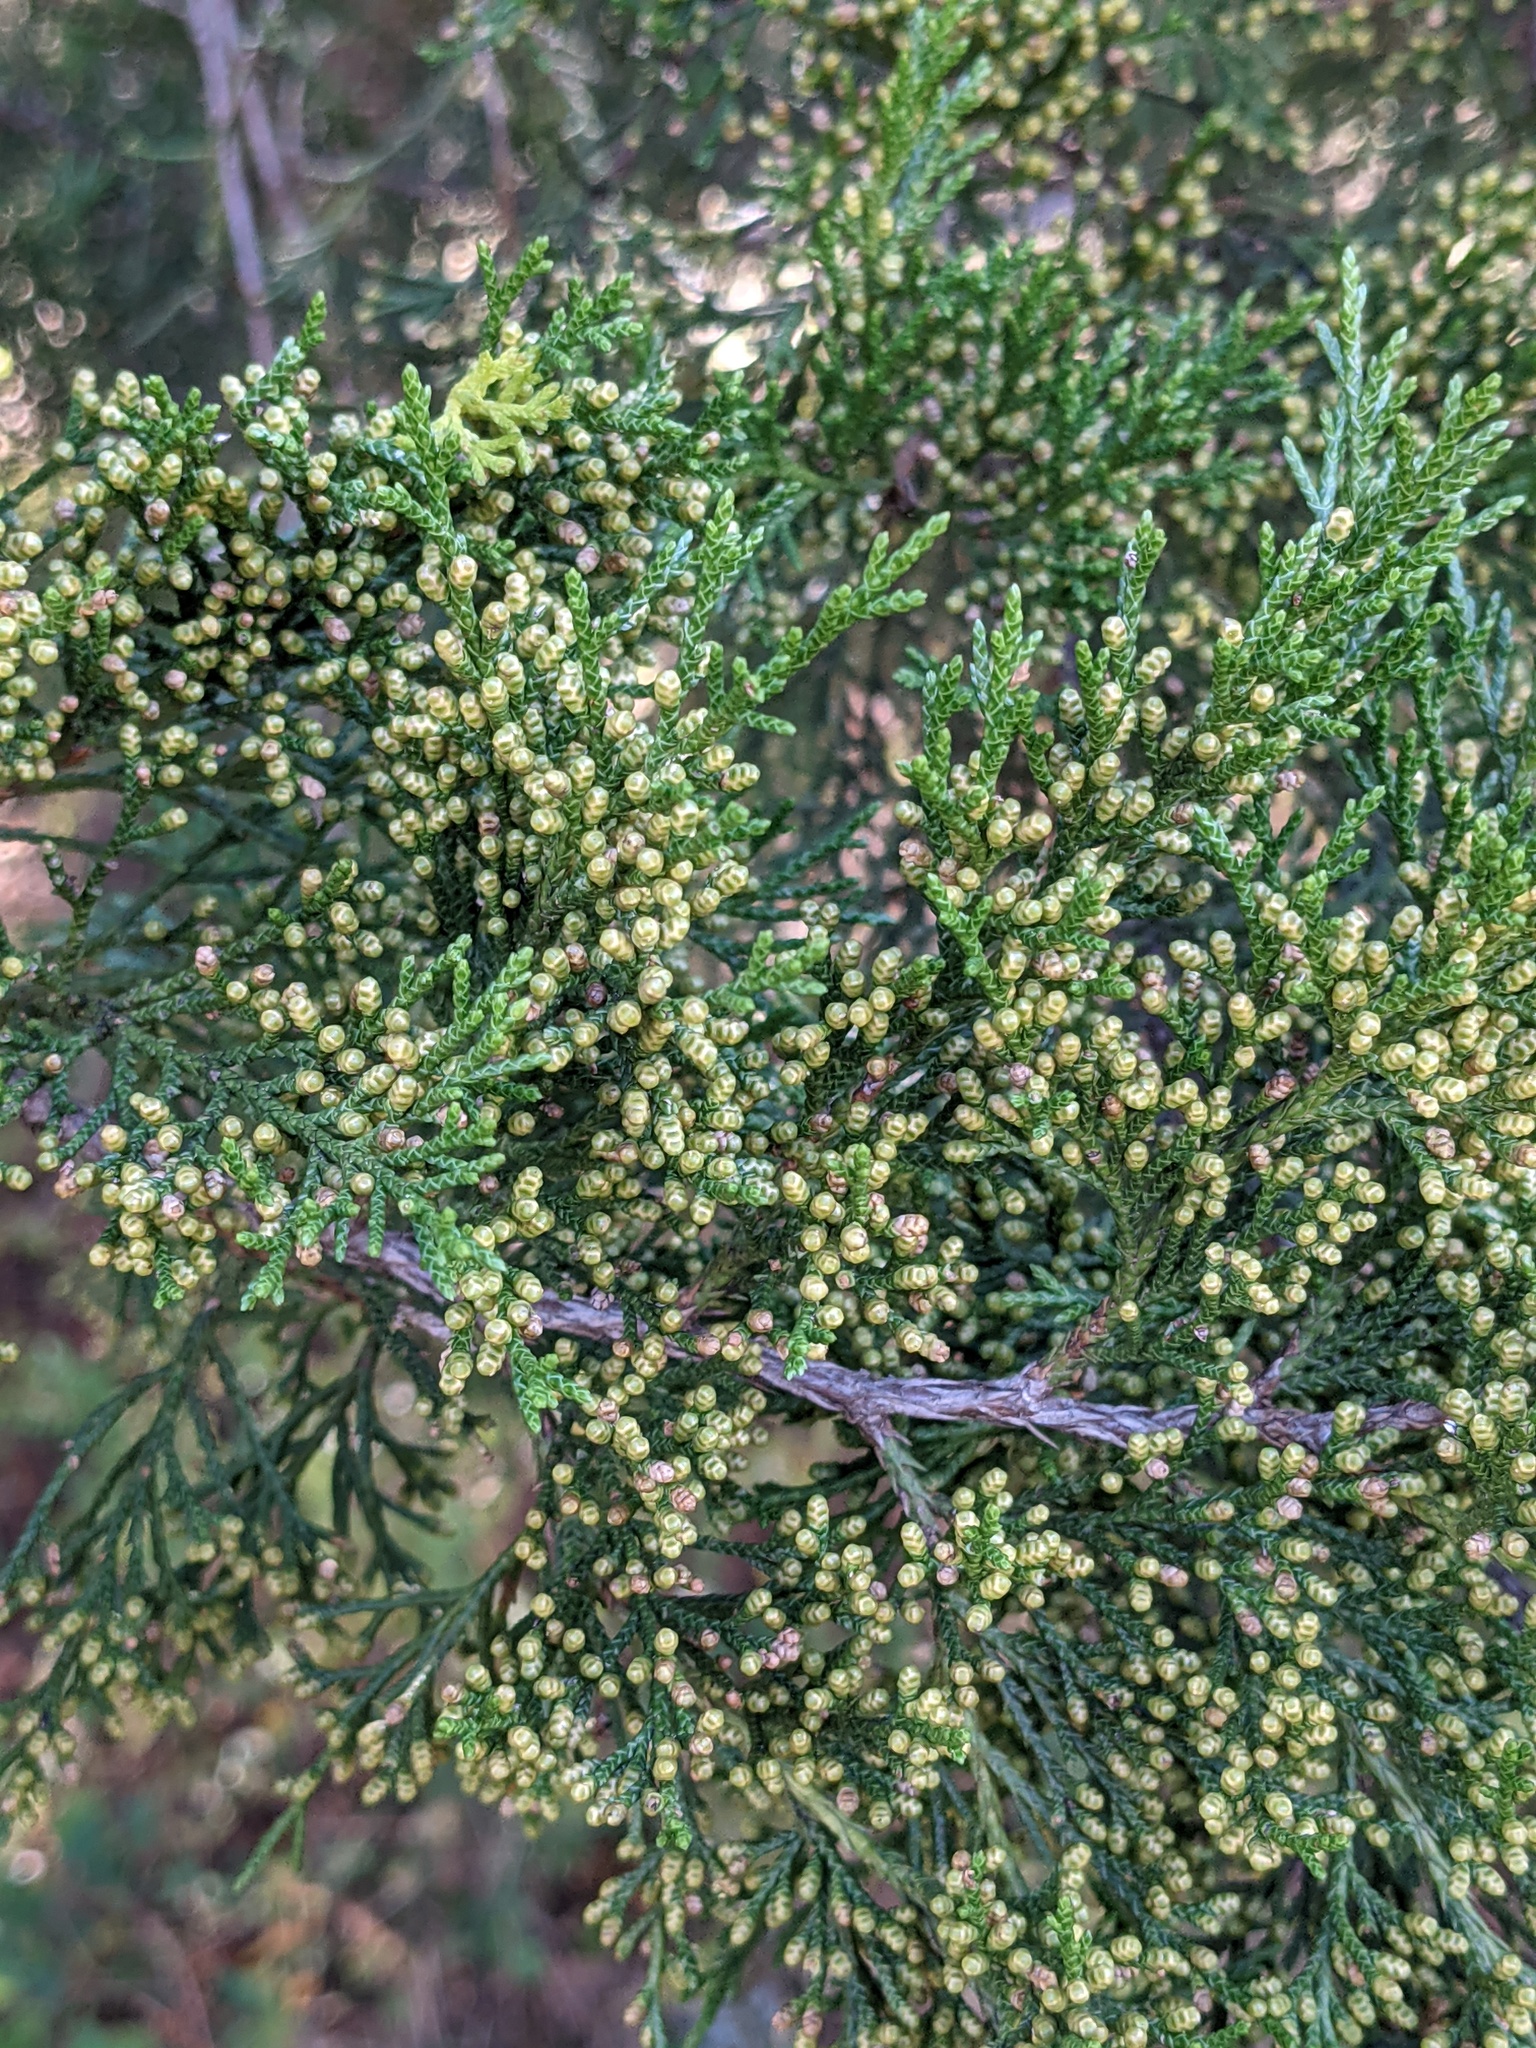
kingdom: Plantae
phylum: Tracheophyta
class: Pinopsida
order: Pinales
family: Cupressaceae
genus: Juniperus
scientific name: Juniperus virginiana
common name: Red juniper
